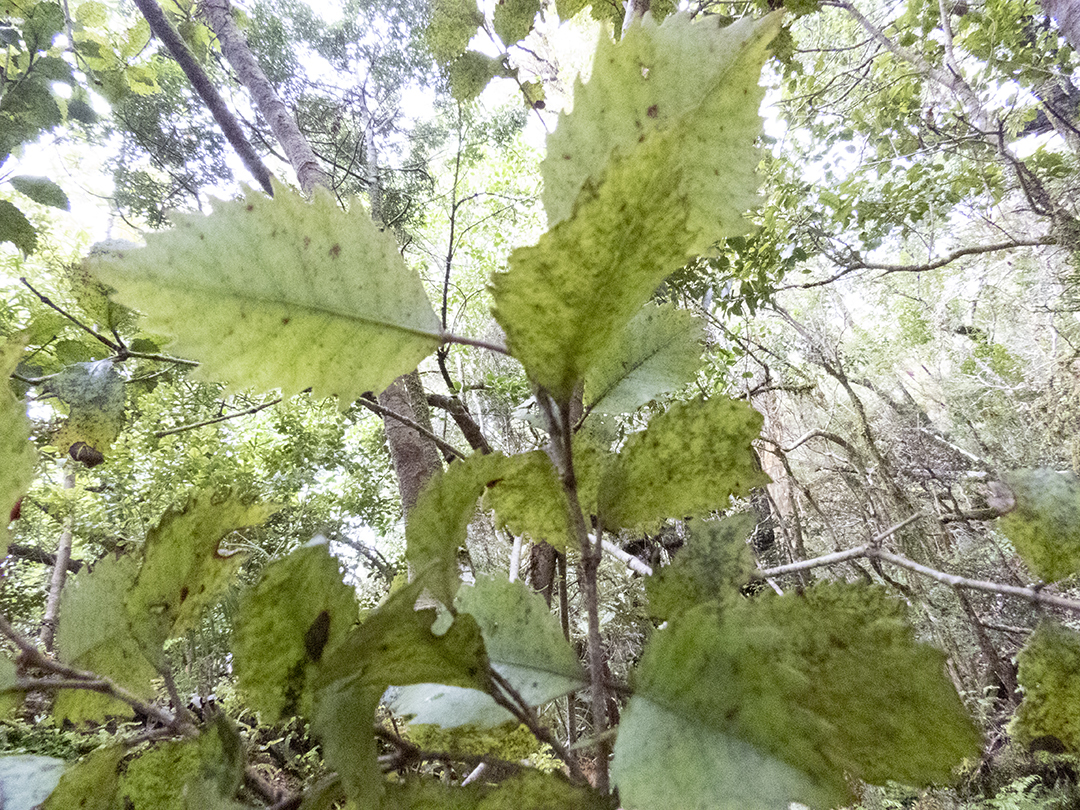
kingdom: Plantae
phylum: Tracheophyta
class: Magnoliopsida
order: Oxalidales
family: Cunoniaceae
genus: Pterophylla
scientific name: Pterophylla racemosa
